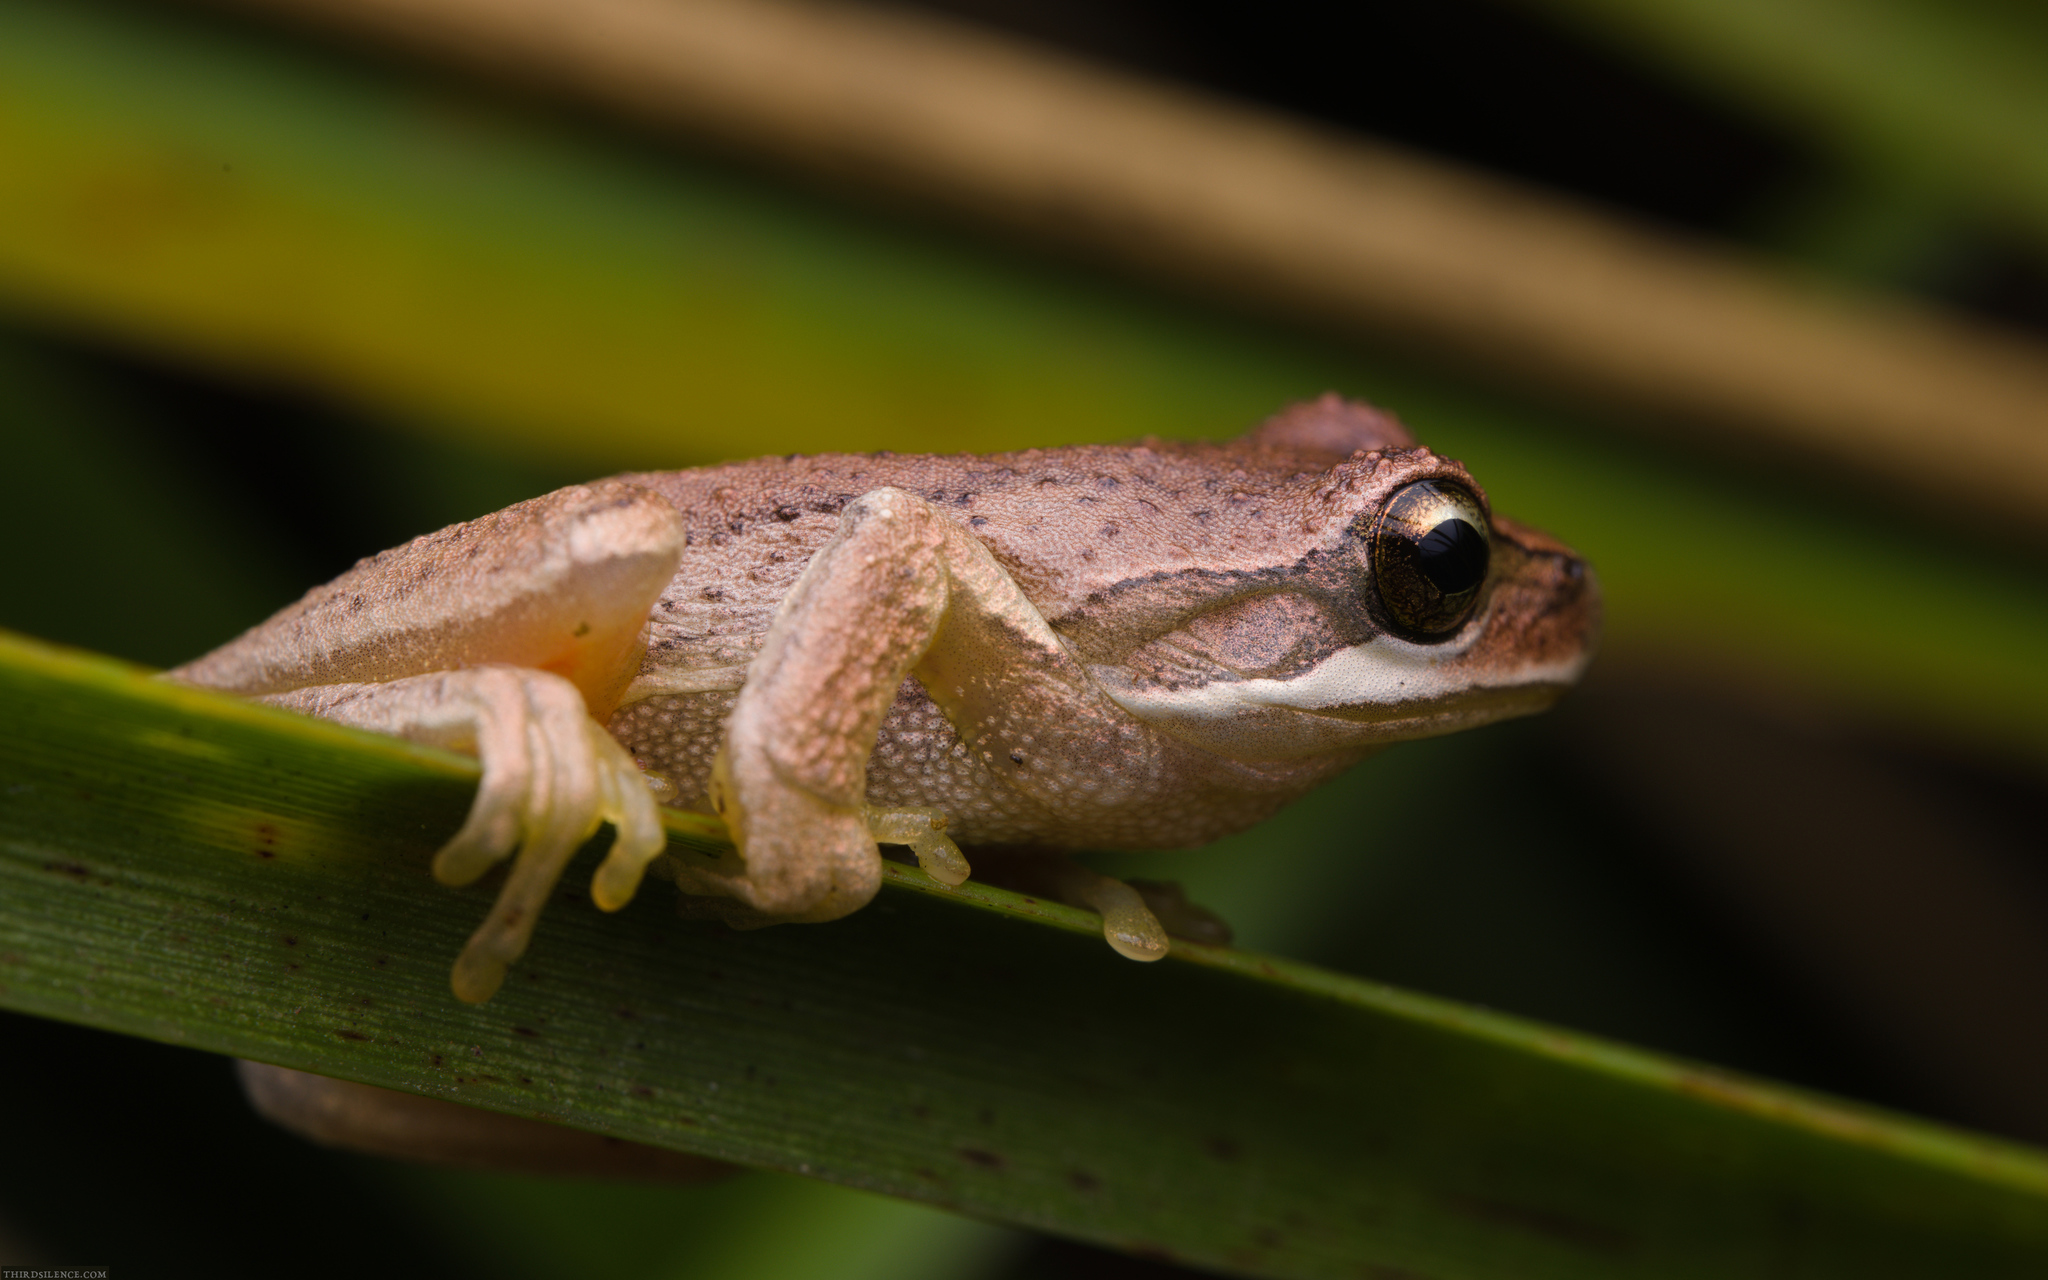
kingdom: Animalia
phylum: Chordata
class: Amphibia
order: Anura
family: Pelodryadidae
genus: Litoria
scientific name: Litoria ewingii
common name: Southern brown tree frog
